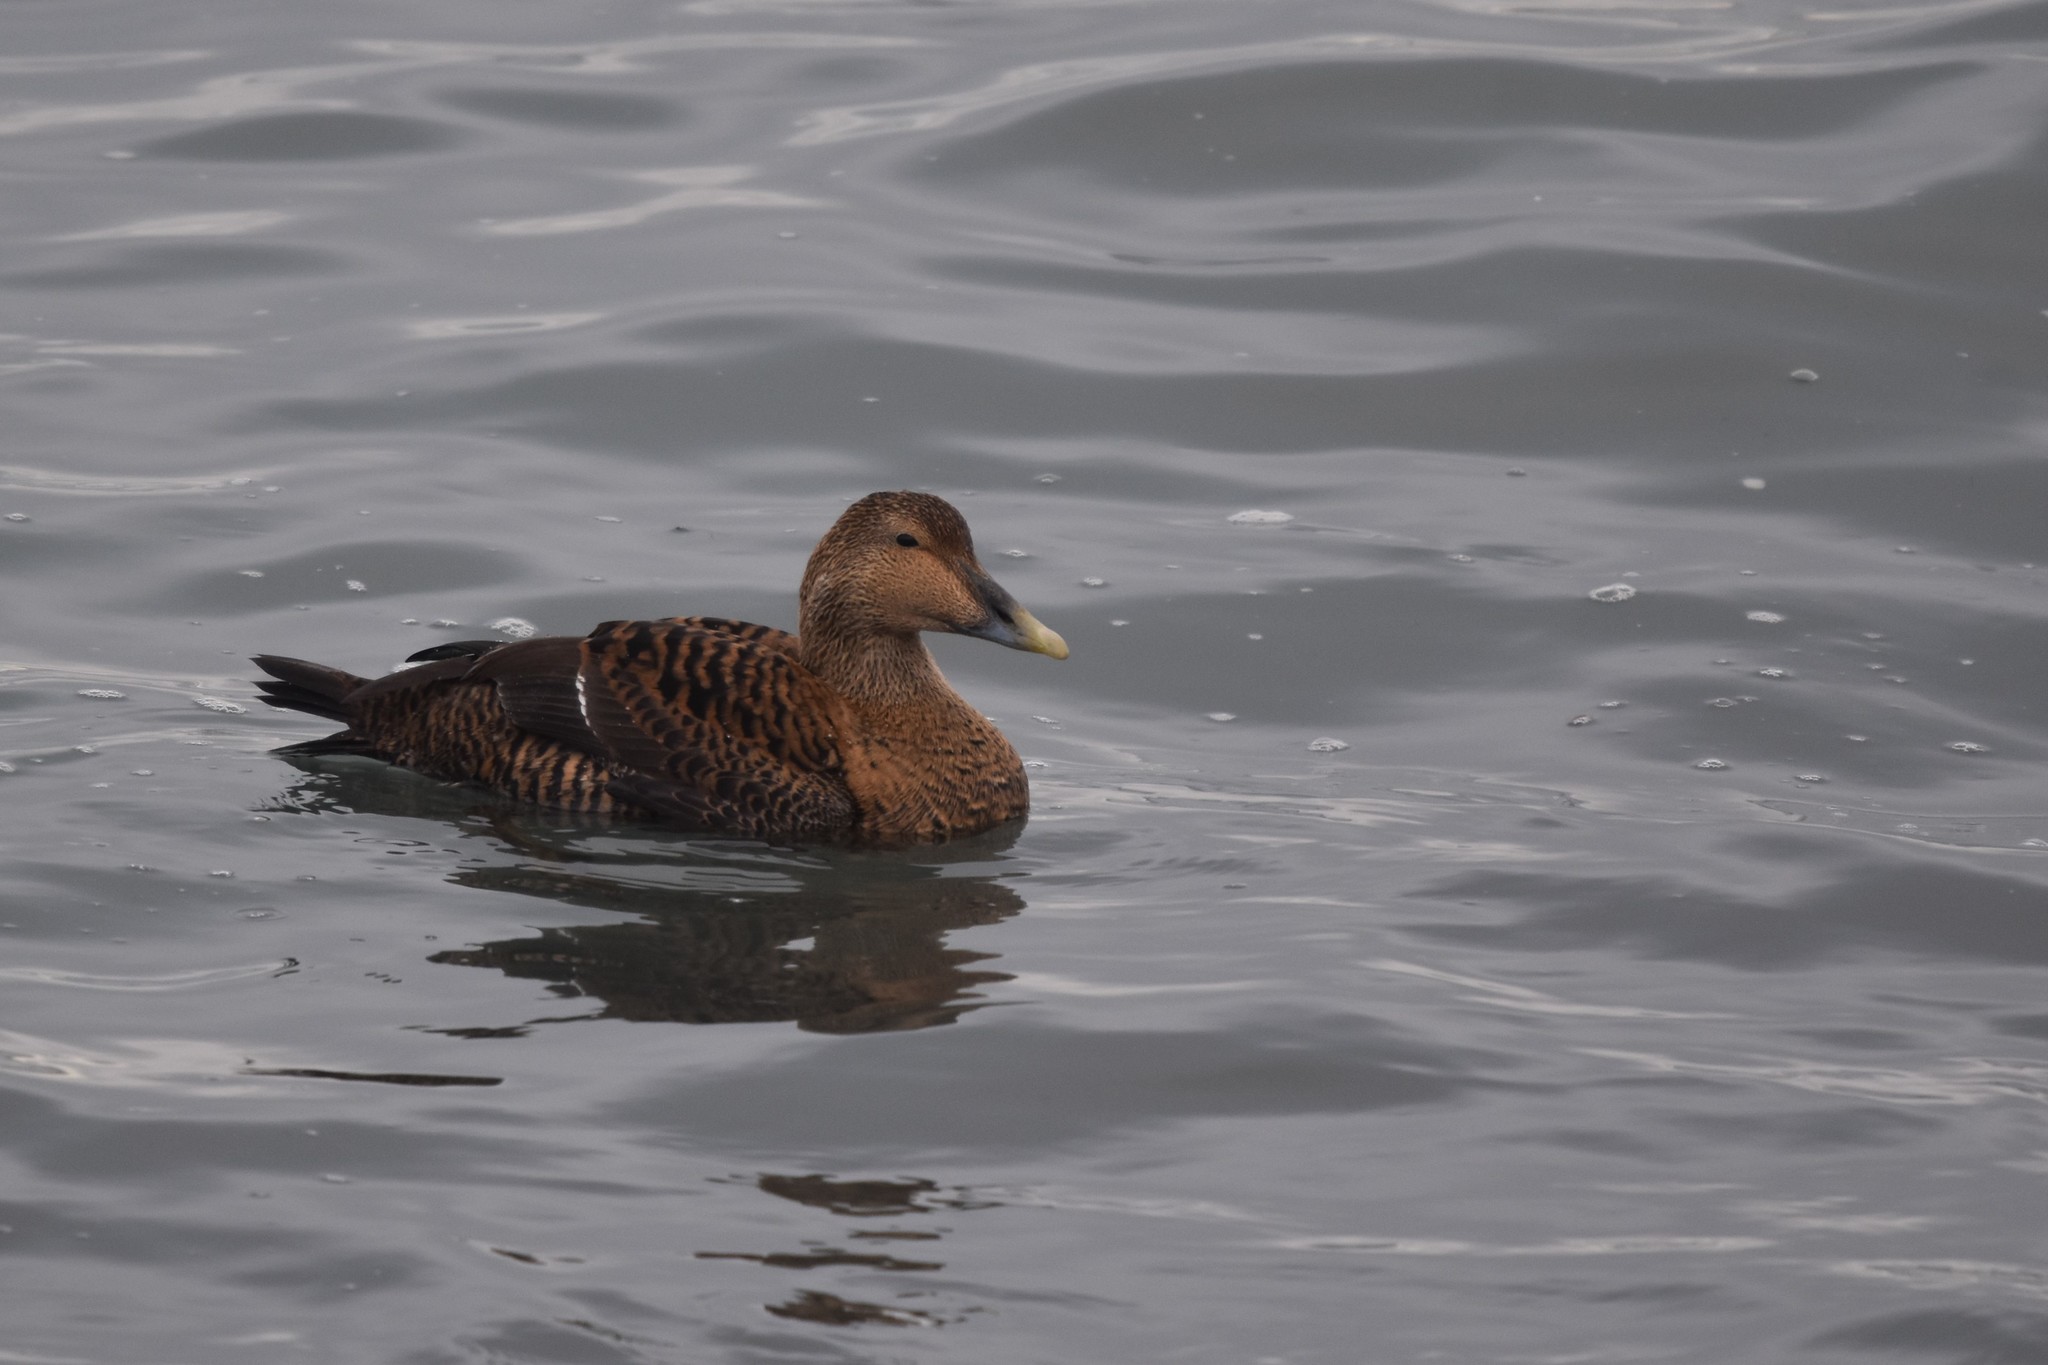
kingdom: Animalia
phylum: Chordata
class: Aves
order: Anseriformes
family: Anatidae
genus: Somateria
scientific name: Somateria mollissima
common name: Common eider
